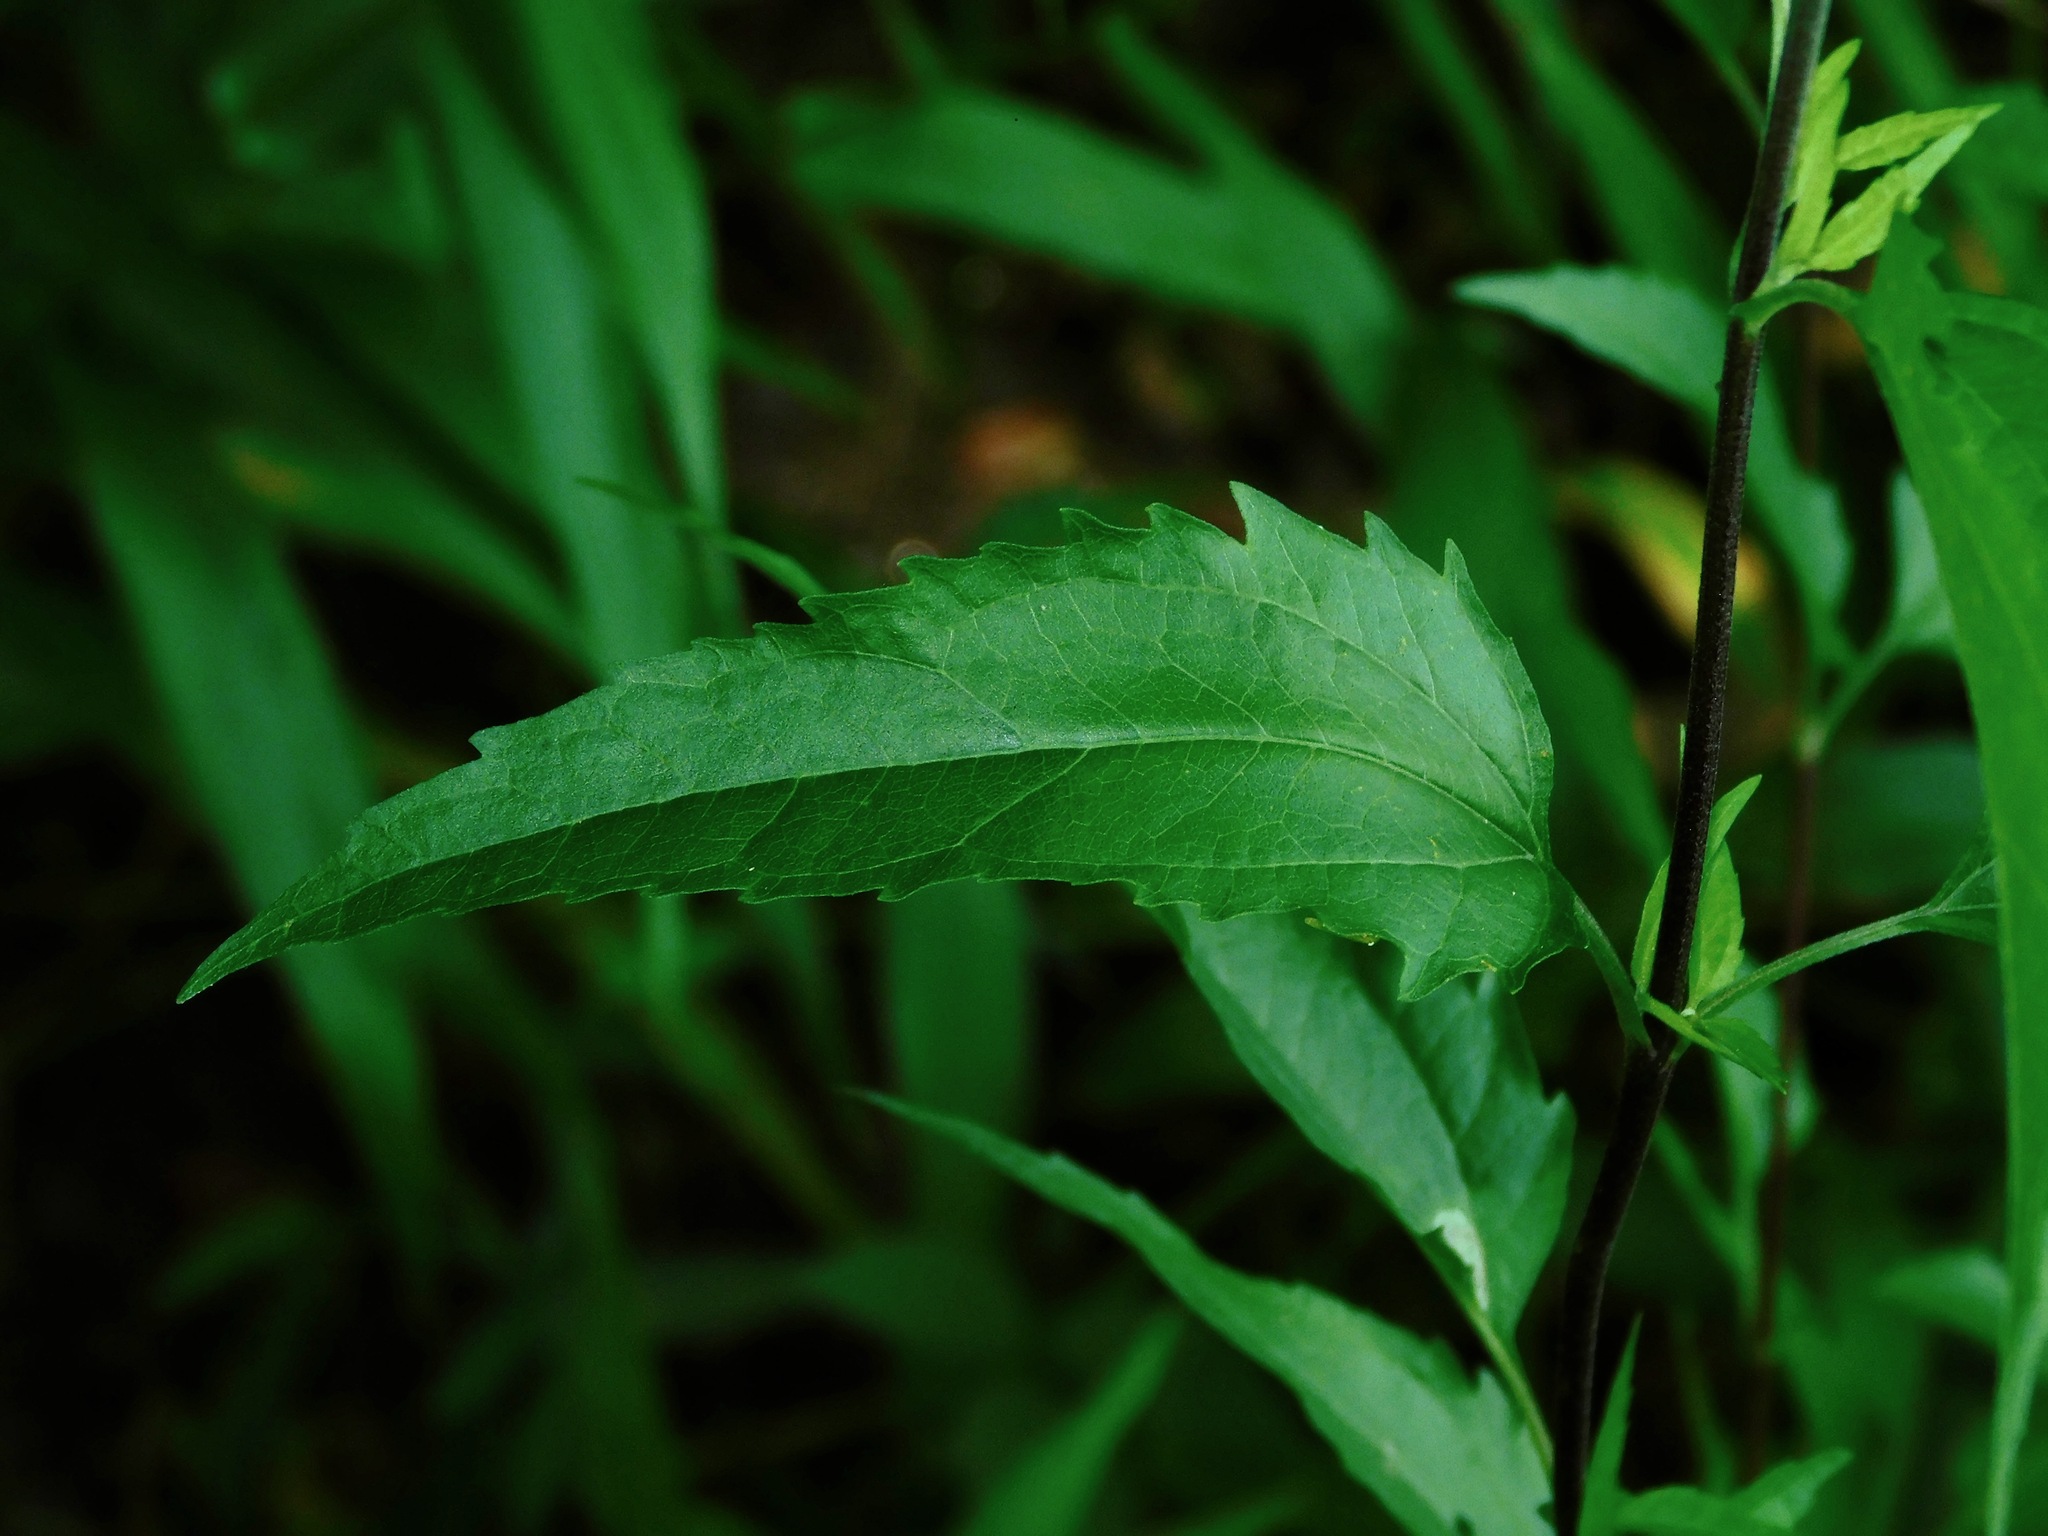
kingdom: Plantae
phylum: Tracheophyta
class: Magnoliopsida
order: Asterales
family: Asteraceae
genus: Eupatorium
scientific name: Eupatorium serotinum
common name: Late boneset
